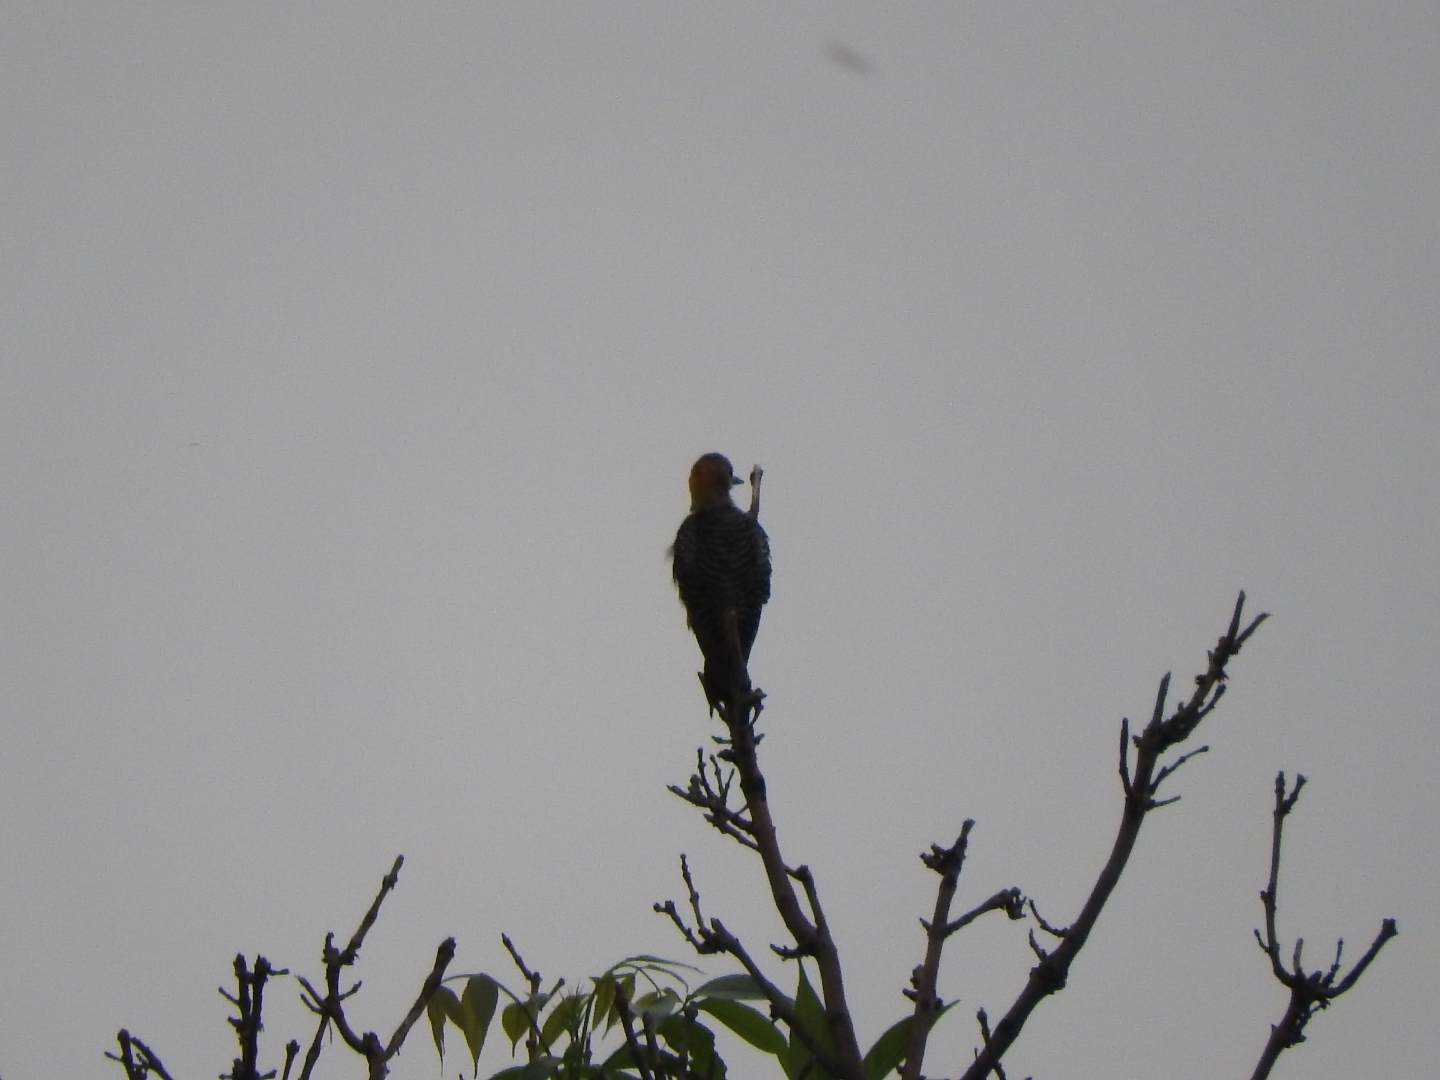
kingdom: Animalia
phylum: Chordata
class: Aves
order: Piciformes
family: Picidae
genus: Melanerpes
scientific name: Melanerpes aurifrons
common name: Golden-fronted woodpecker
